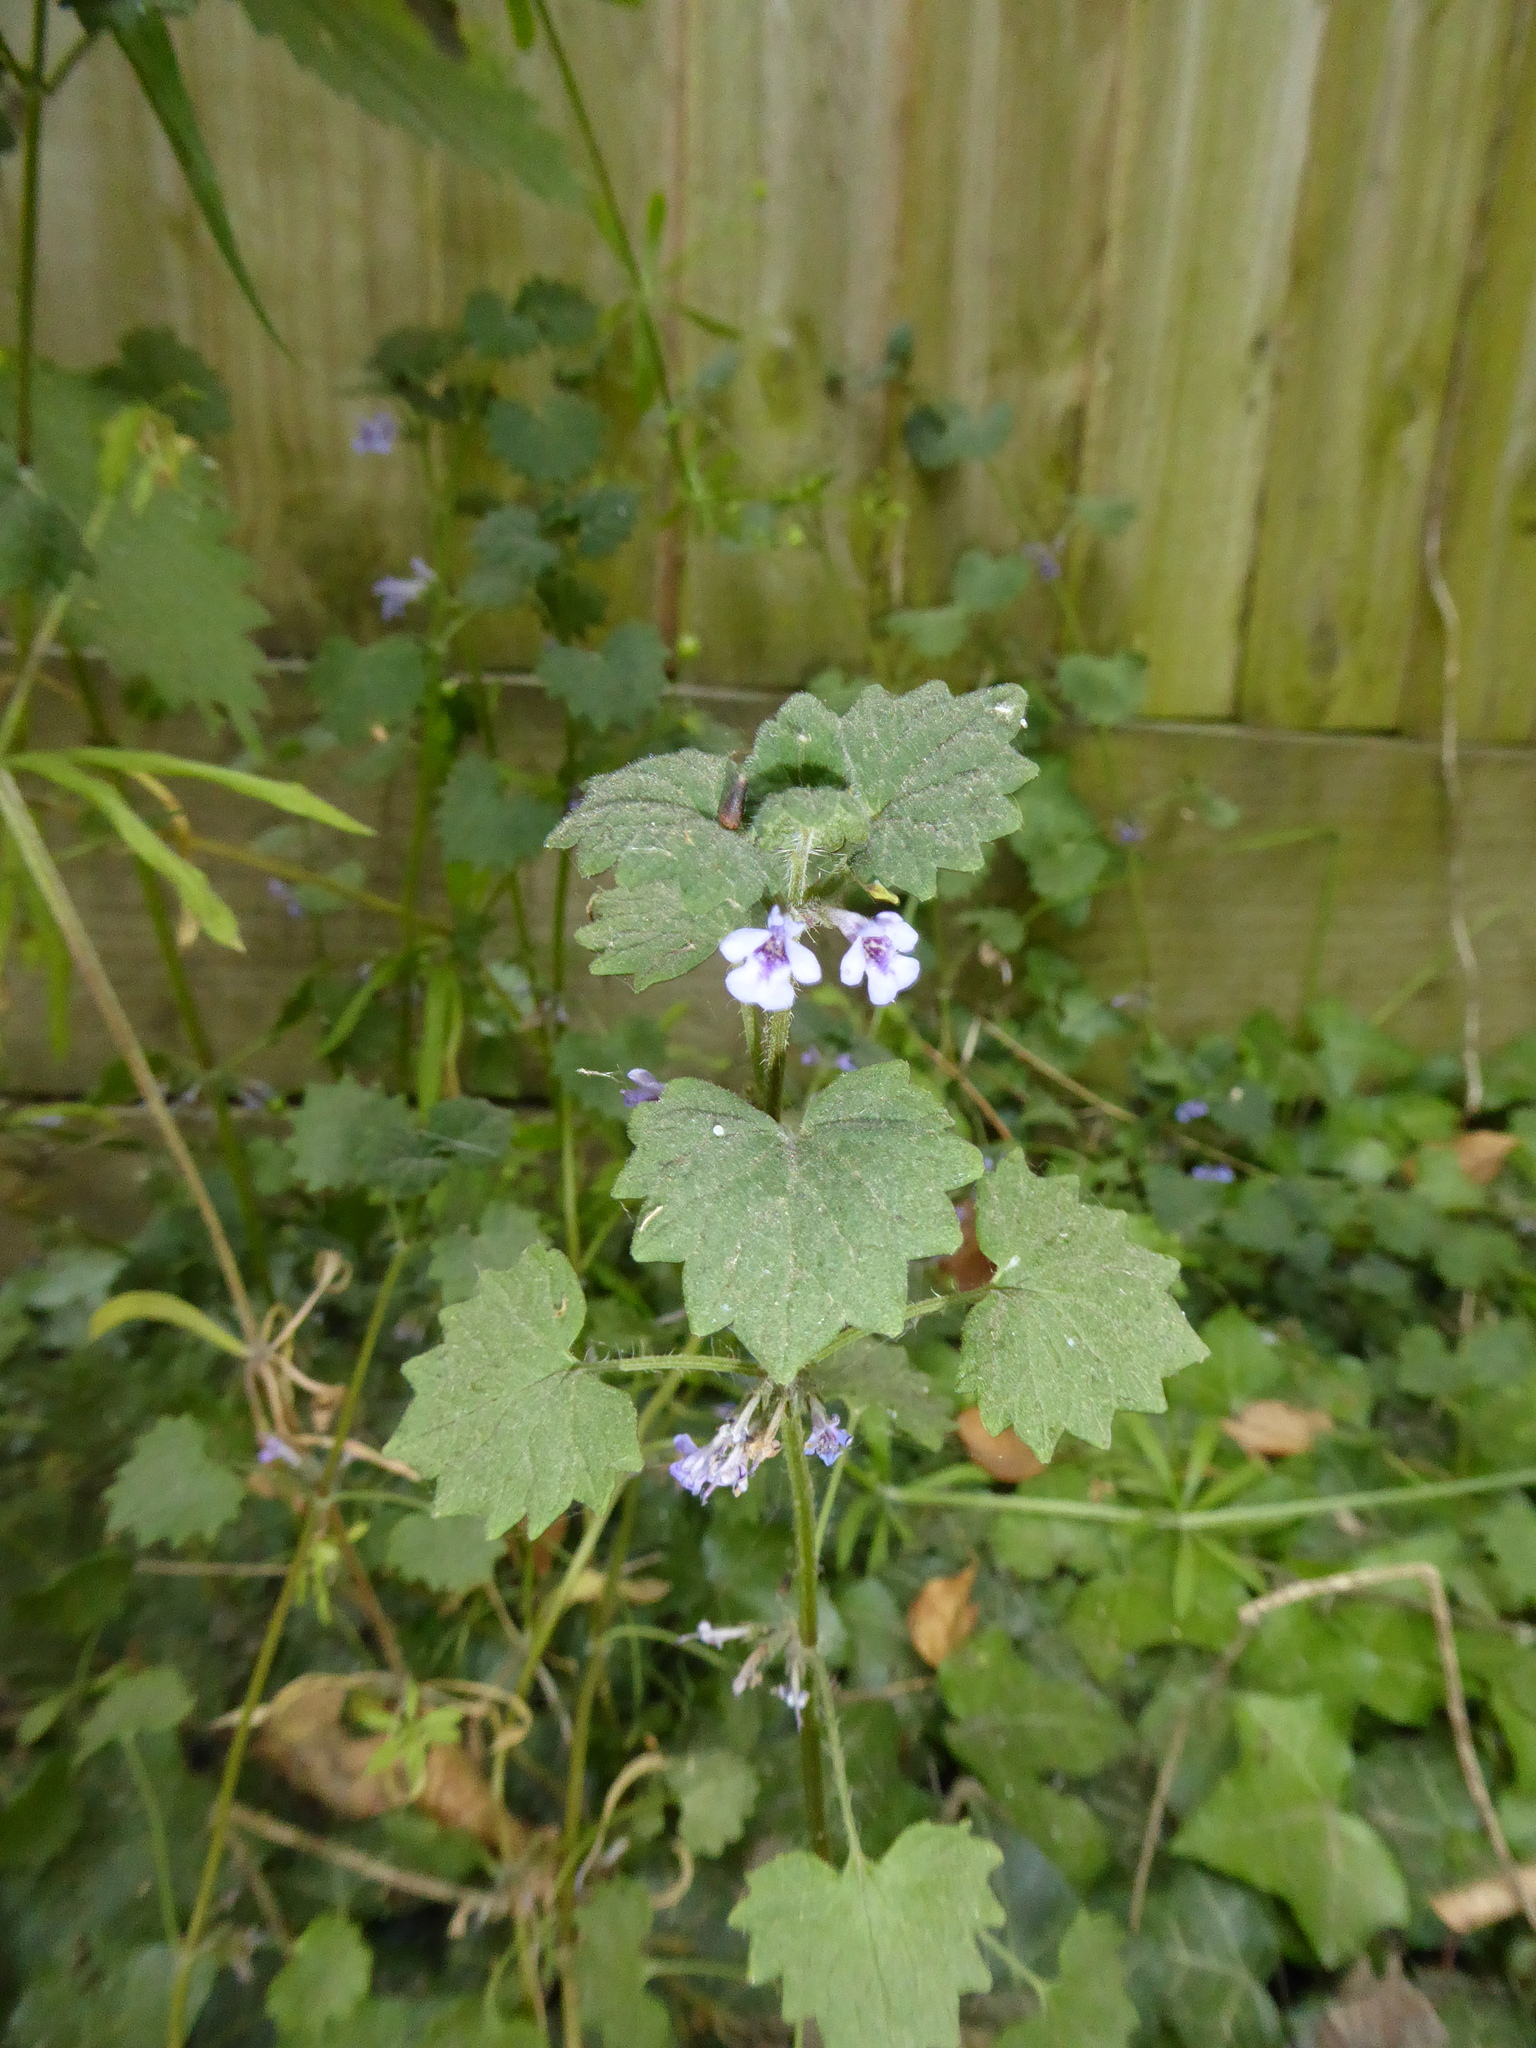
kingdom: Plantae
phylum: Tracheophyta
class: Magnoliopsida
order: Lamiales
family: Lamiaceae
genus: Glechoma
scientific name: Glechoma hederacea
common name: Ground ivy
